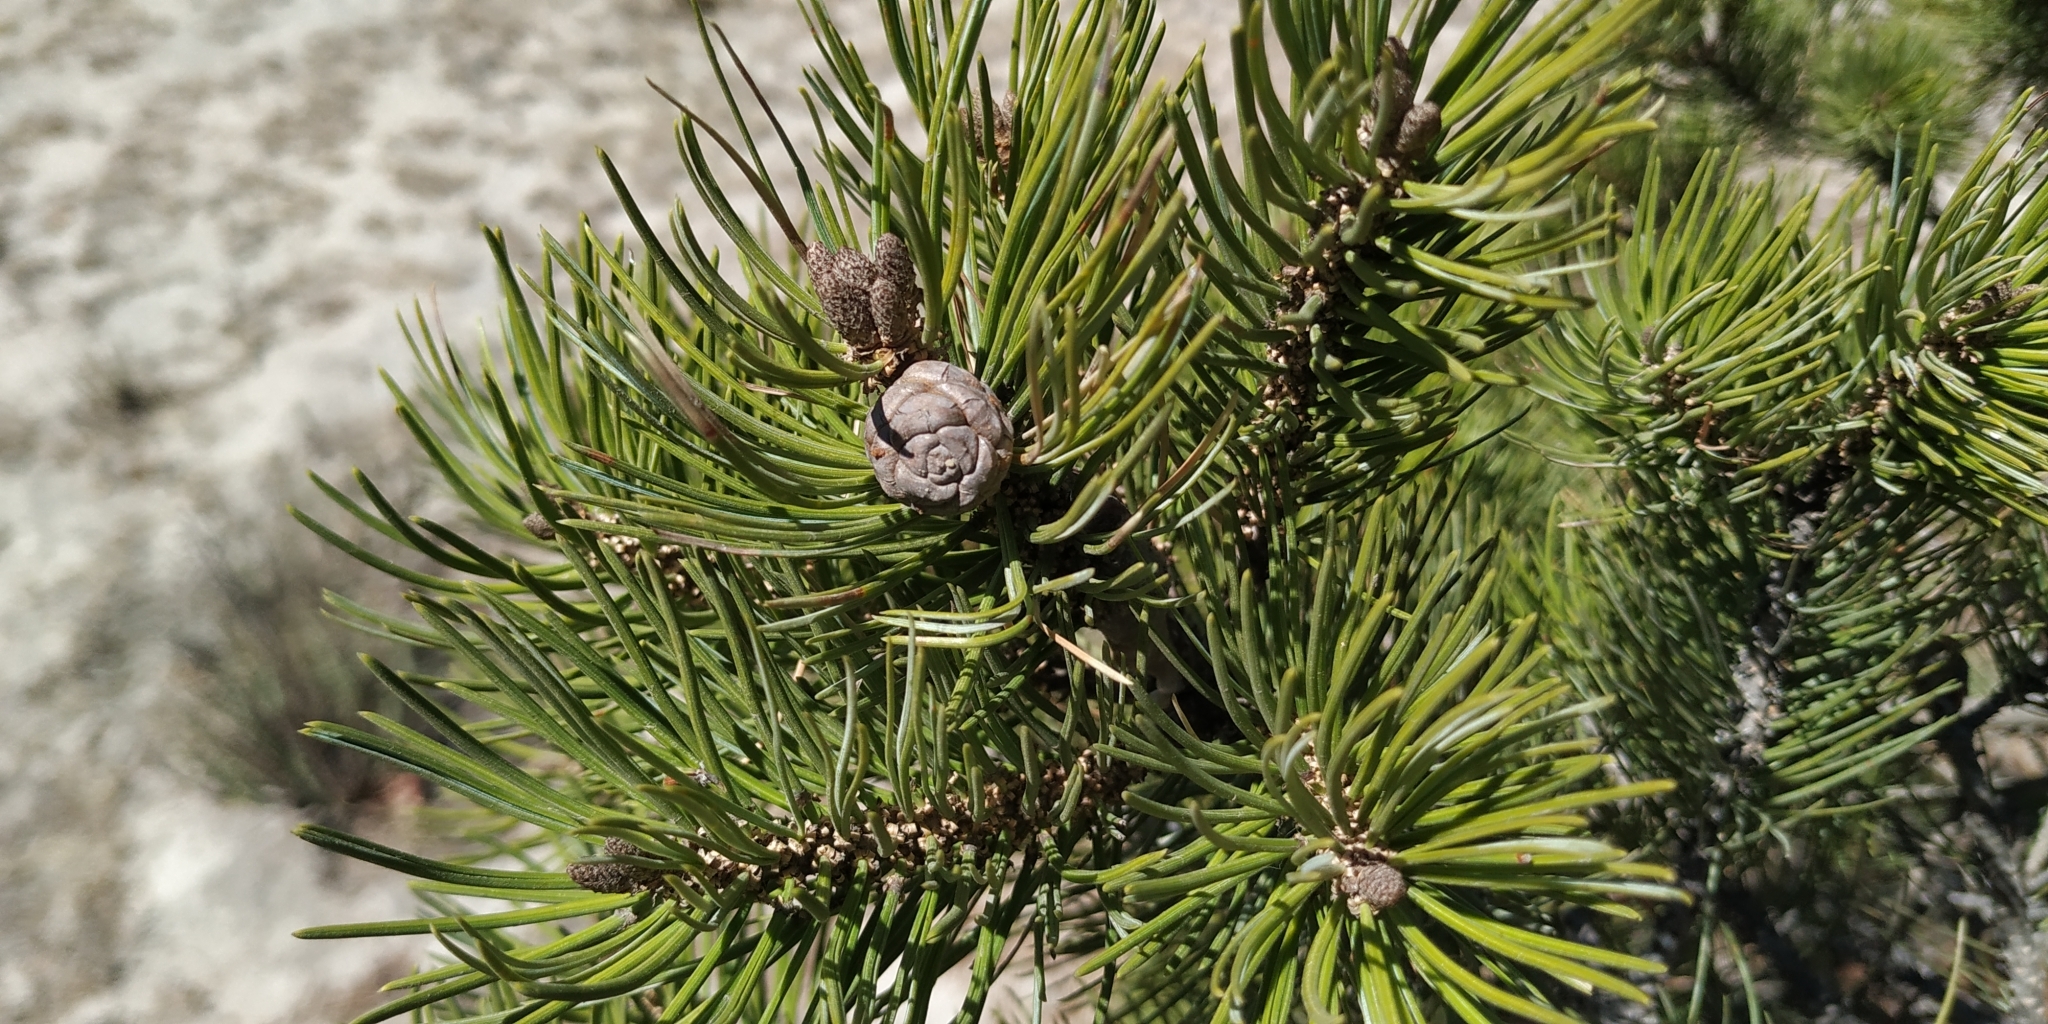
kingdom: Plantae
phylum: Tracheophyta
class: Pinopsida
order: Pinales
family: Pinaceae
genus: Pinus
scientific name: Pinus cembroides
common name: Mexican nut pine
